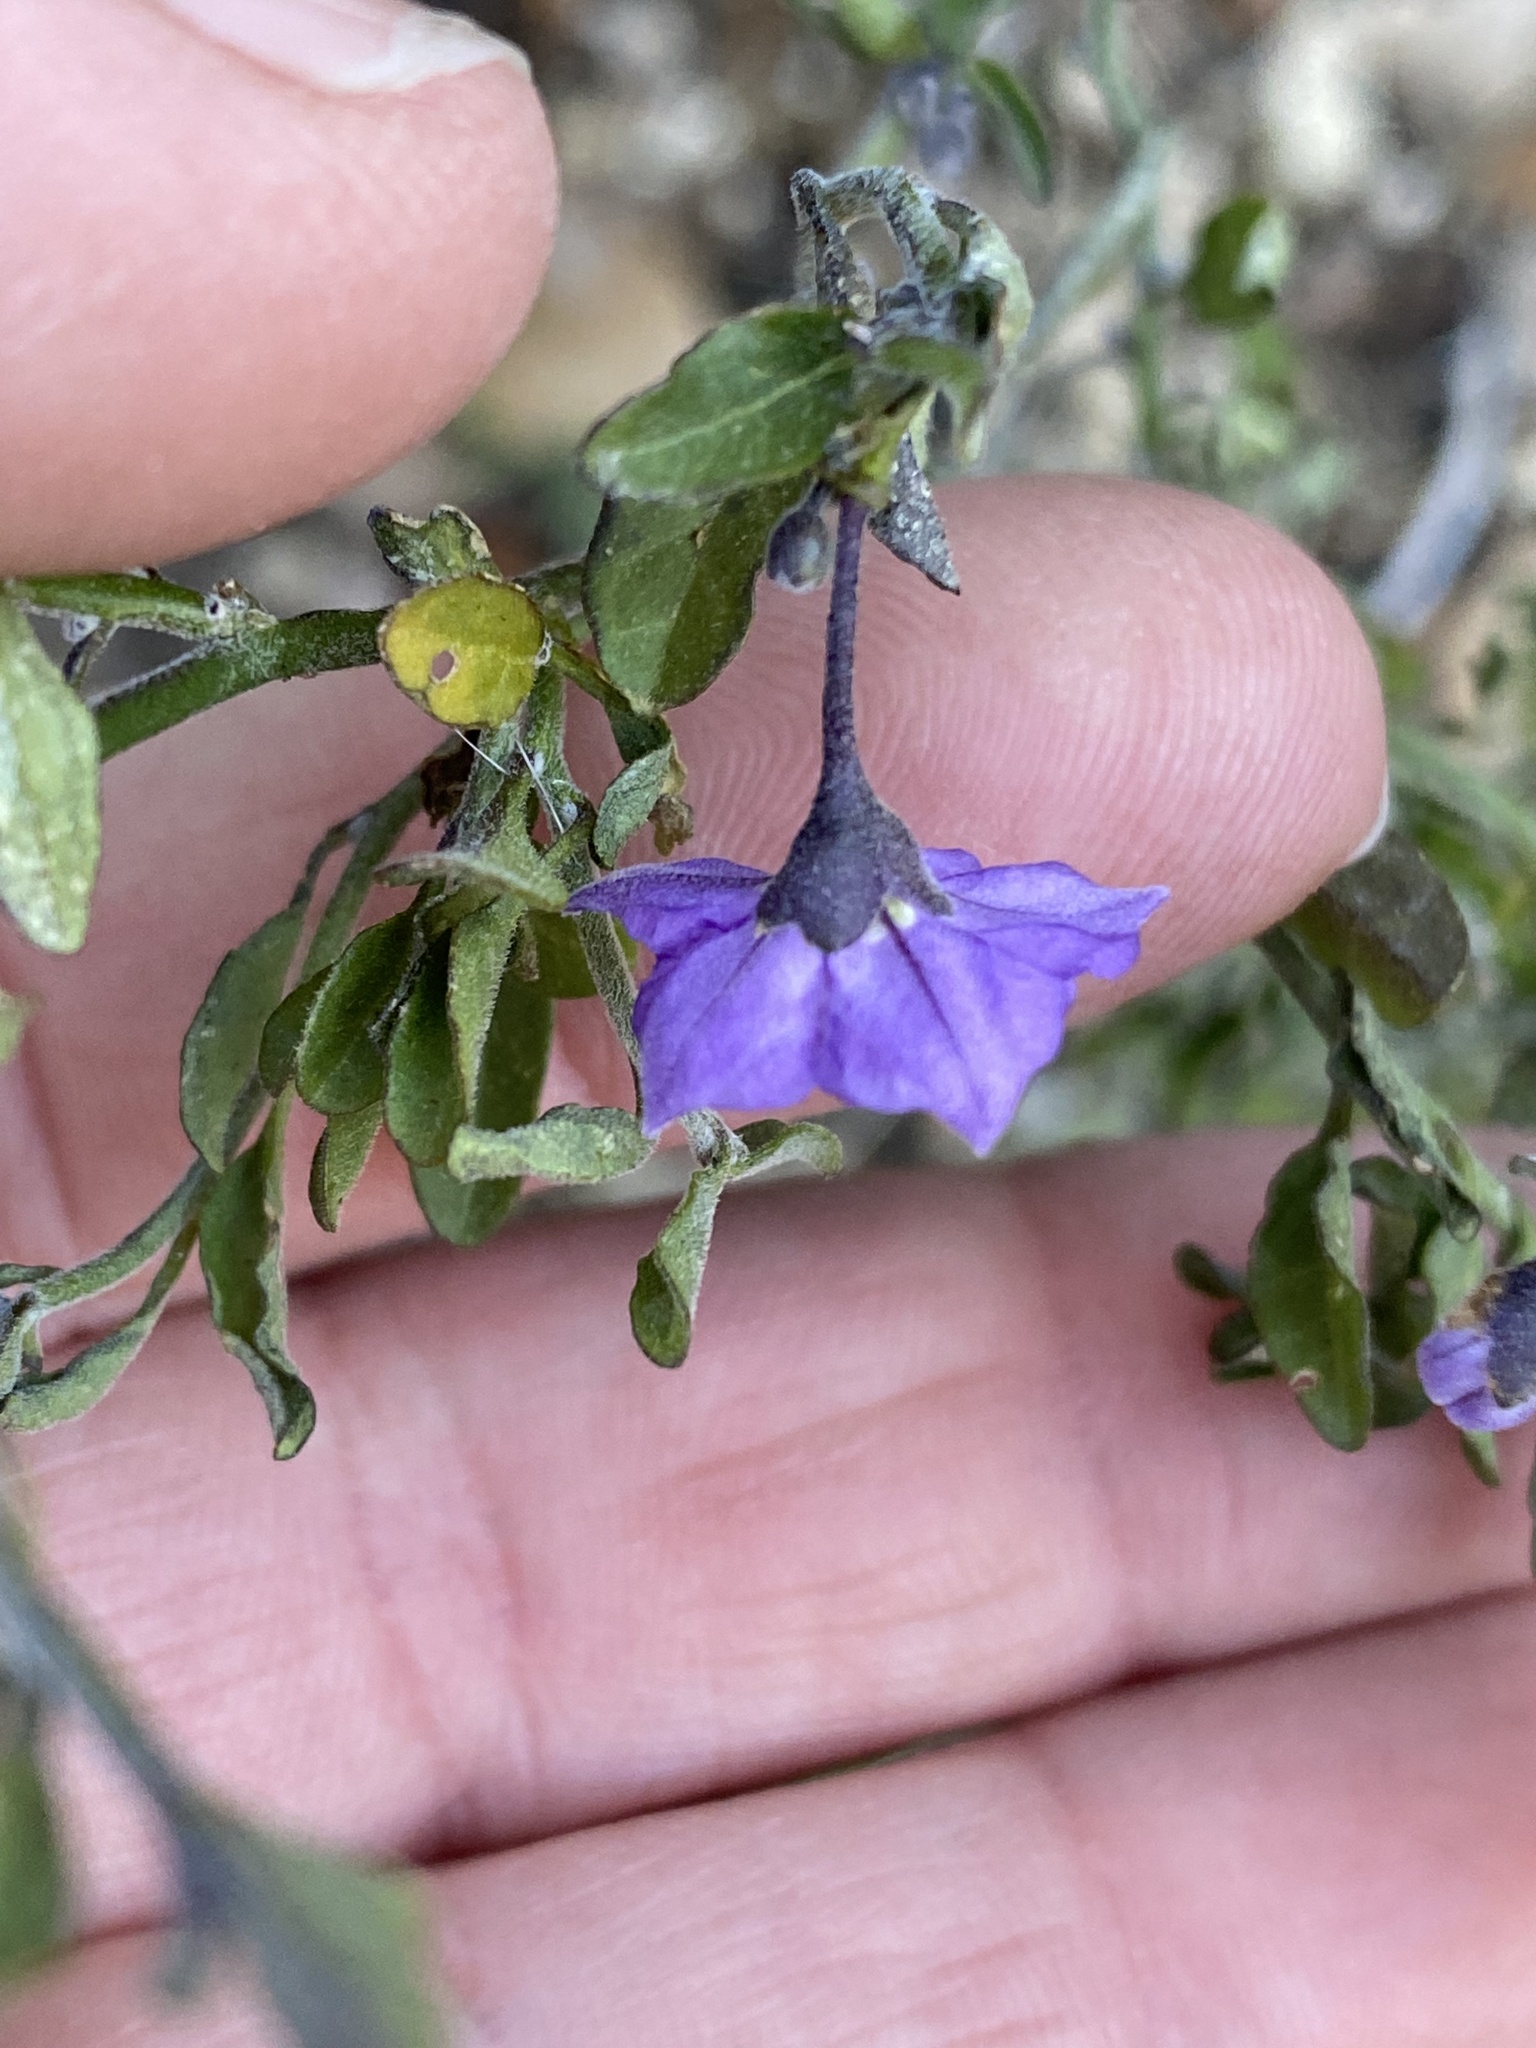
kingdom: Plantae
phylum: Tracheophyta
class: Magnoliopsida
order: Solanales
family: Solanaceae
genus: Solanum
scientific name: Solanum umbelliferum
